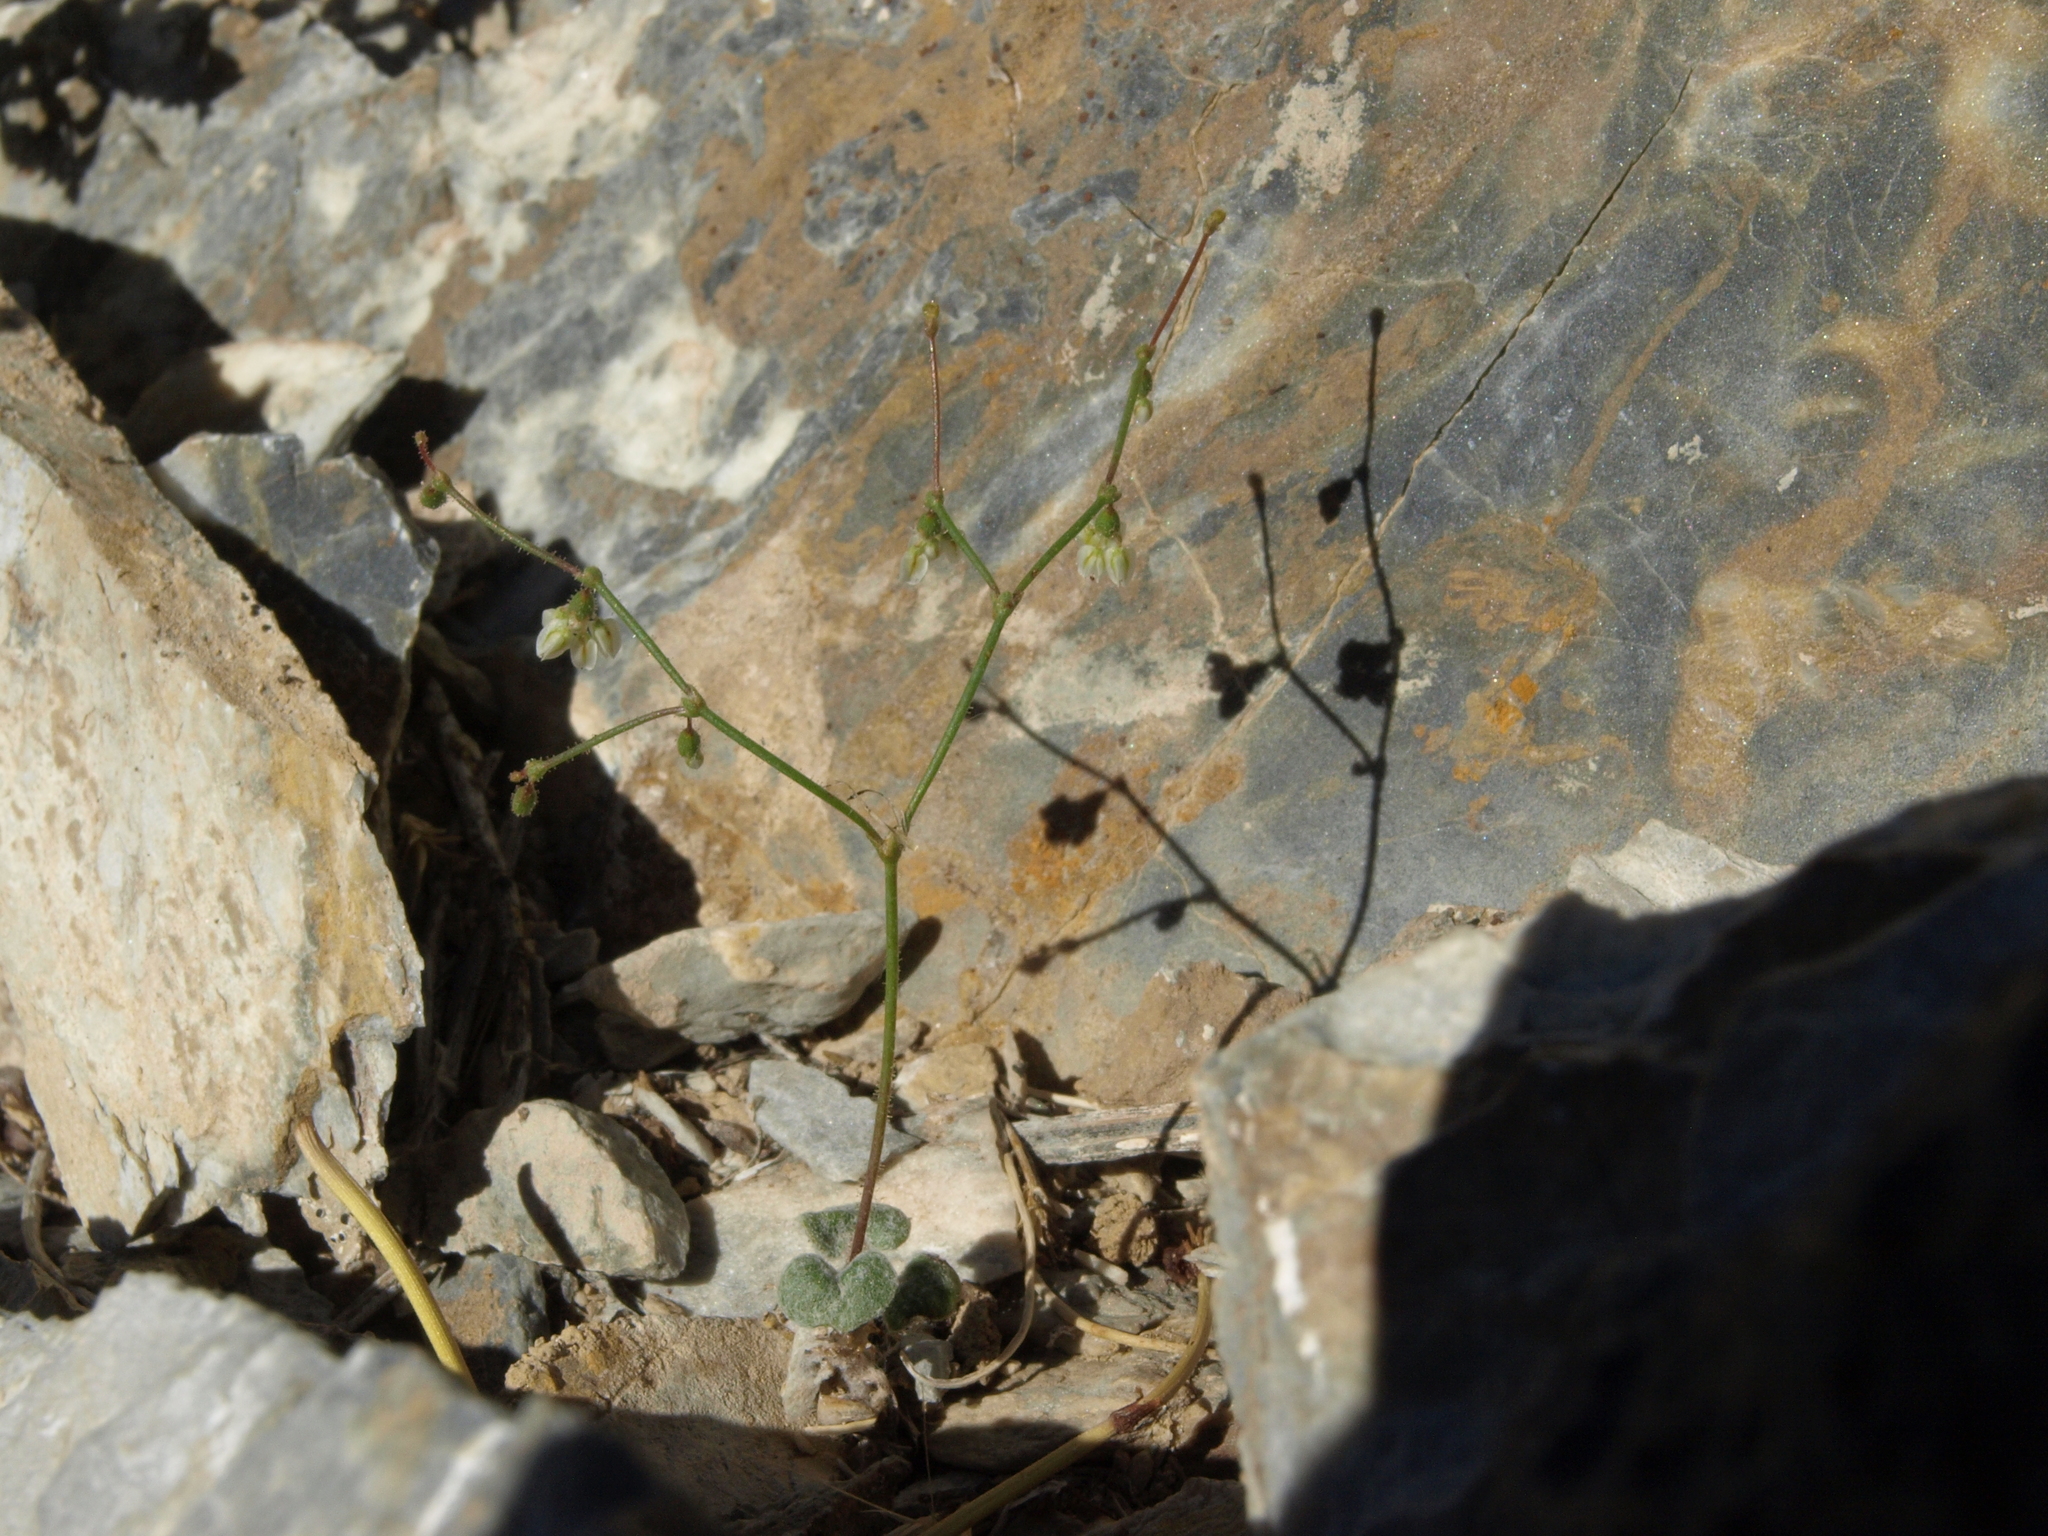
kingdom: Plantae
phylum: Tracheophyta
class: Magnoliopsida
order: Caryophyllales
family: Polygonaceae
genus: Eriogonum
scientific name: Eriogonum brachypodum
